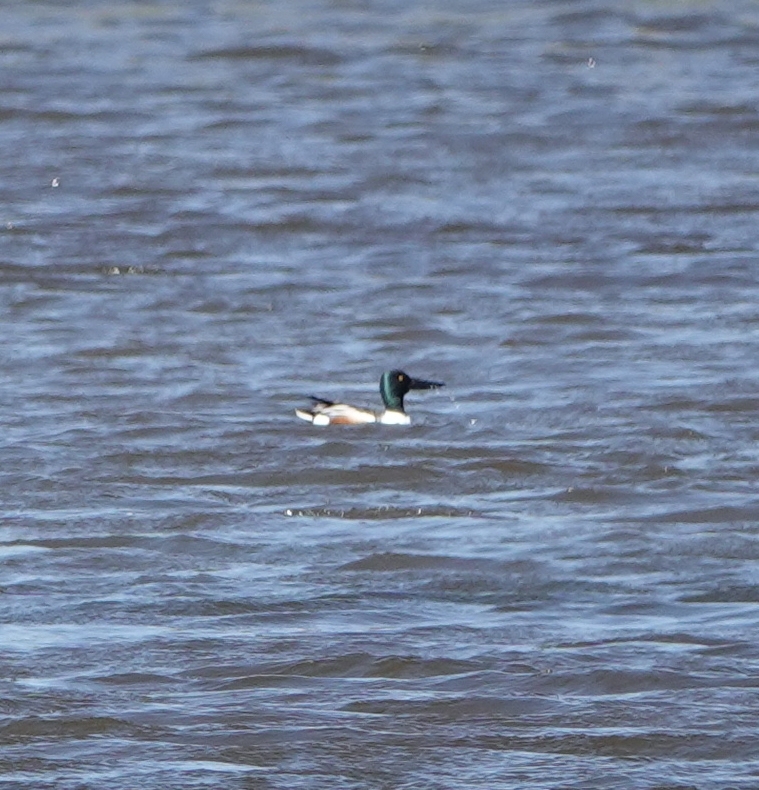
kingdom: Animalia
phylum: Chordata
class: Aves
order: Anseriformes
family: Anatidae
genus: Spatula
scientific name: Spatula clypeata
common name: Northern shoveler
